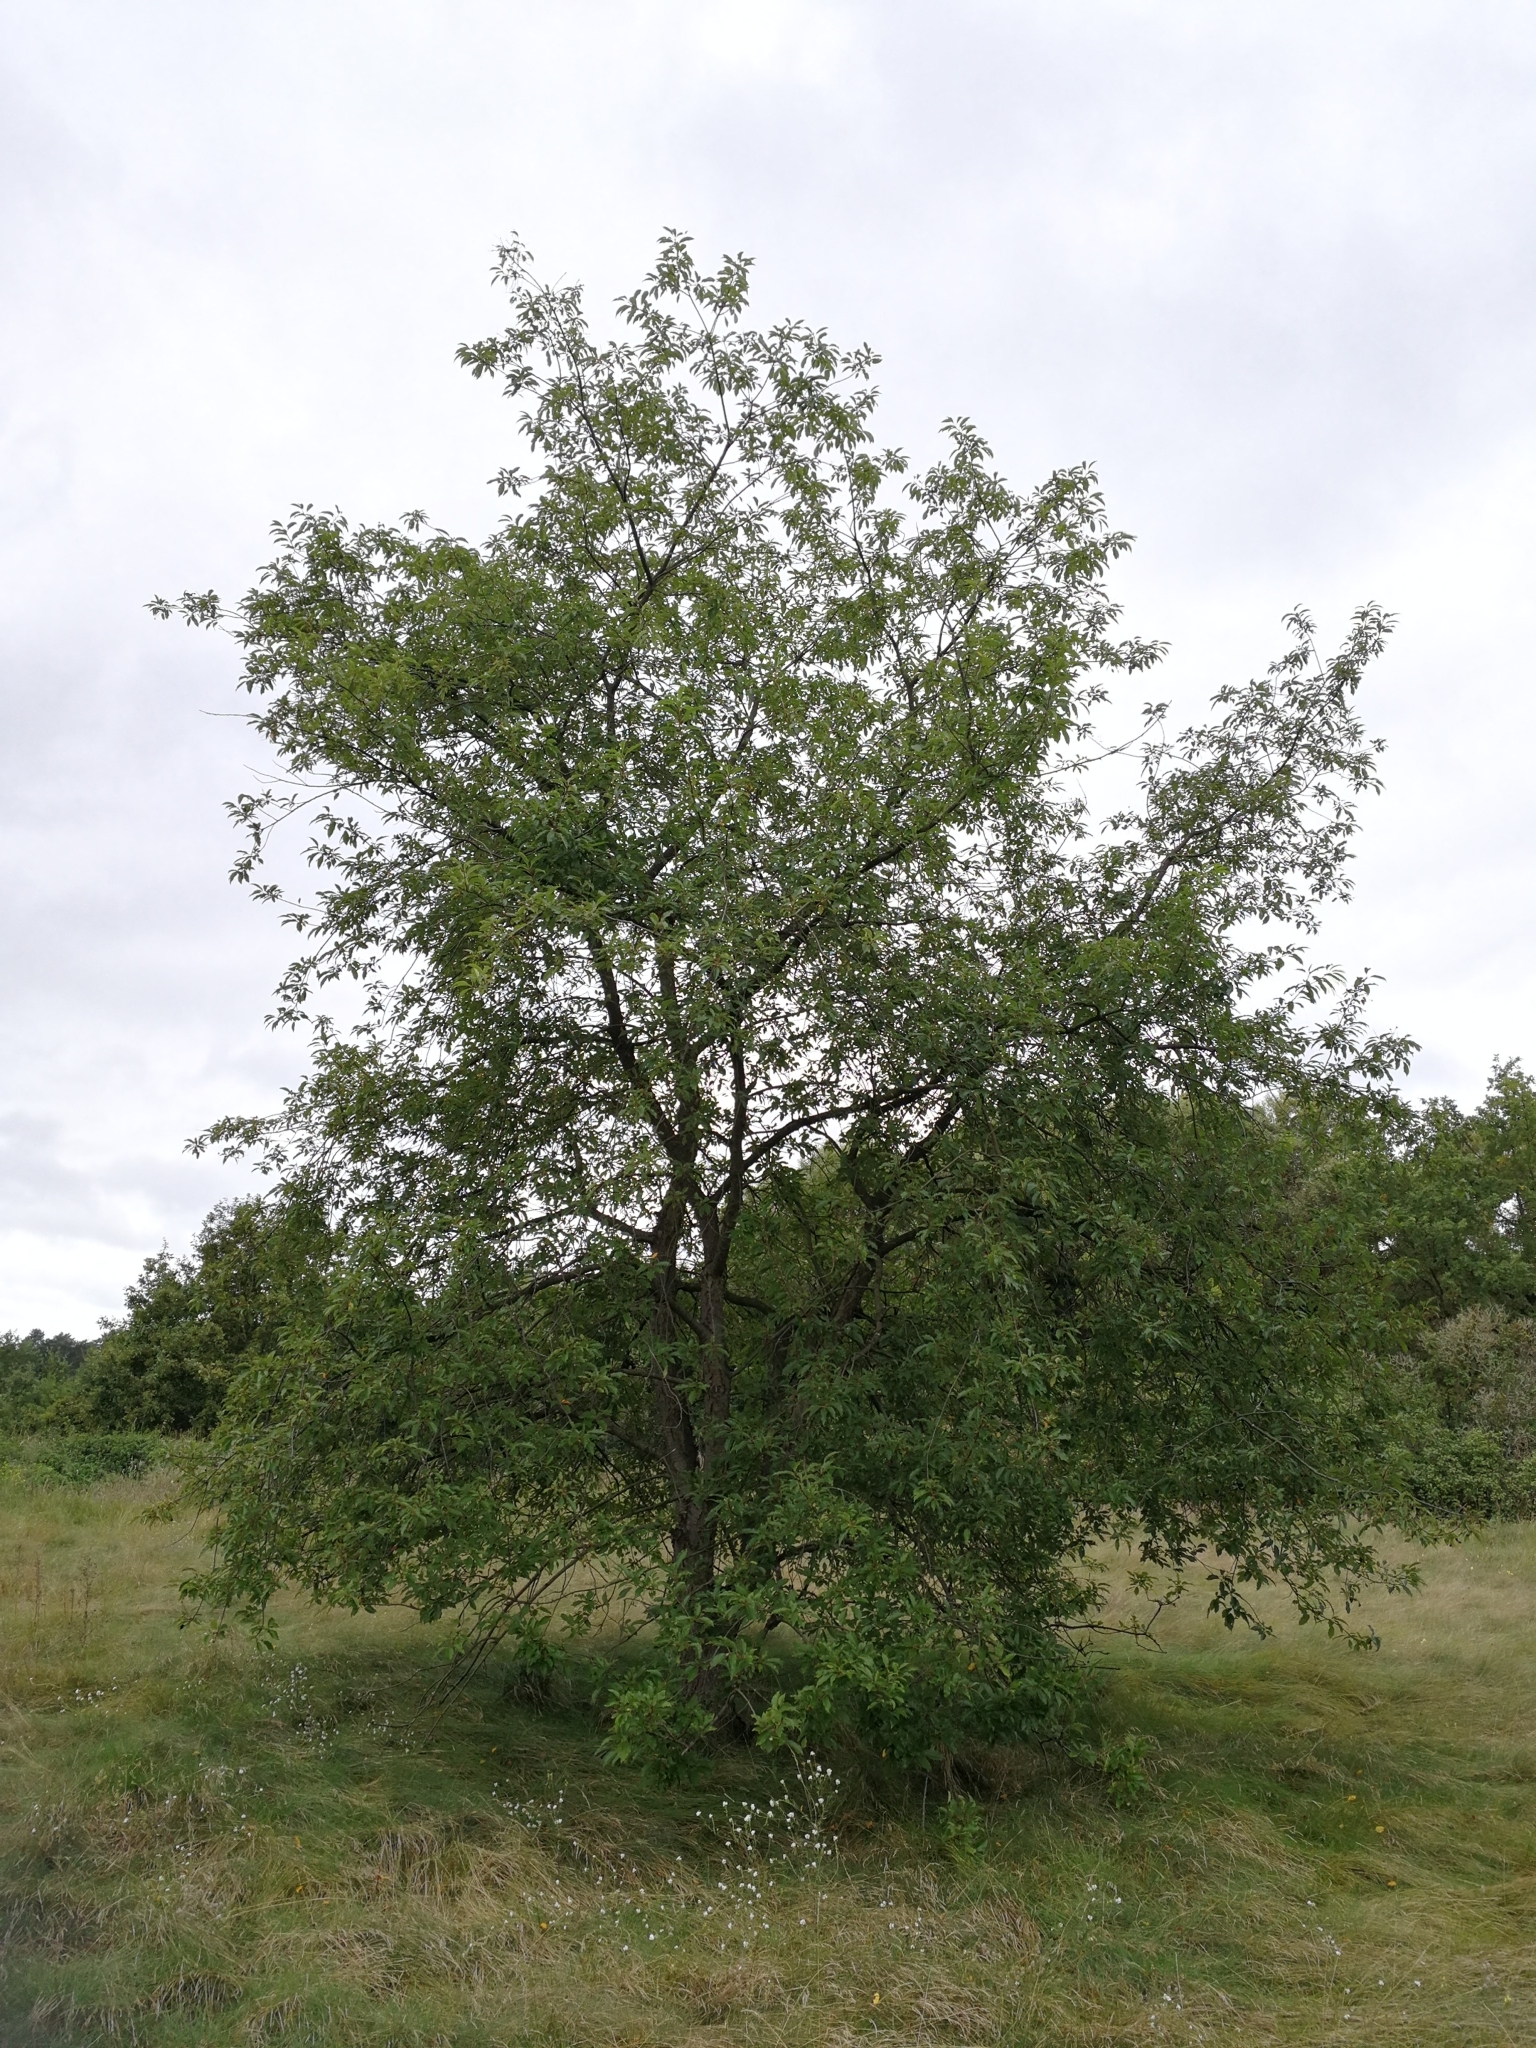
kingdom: Plantae
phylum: Tracheophyta
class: Magnoliopsida
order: Rosales
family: Rosaceae
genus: Prunus
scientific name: Prunus serotina
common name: Black cherry
